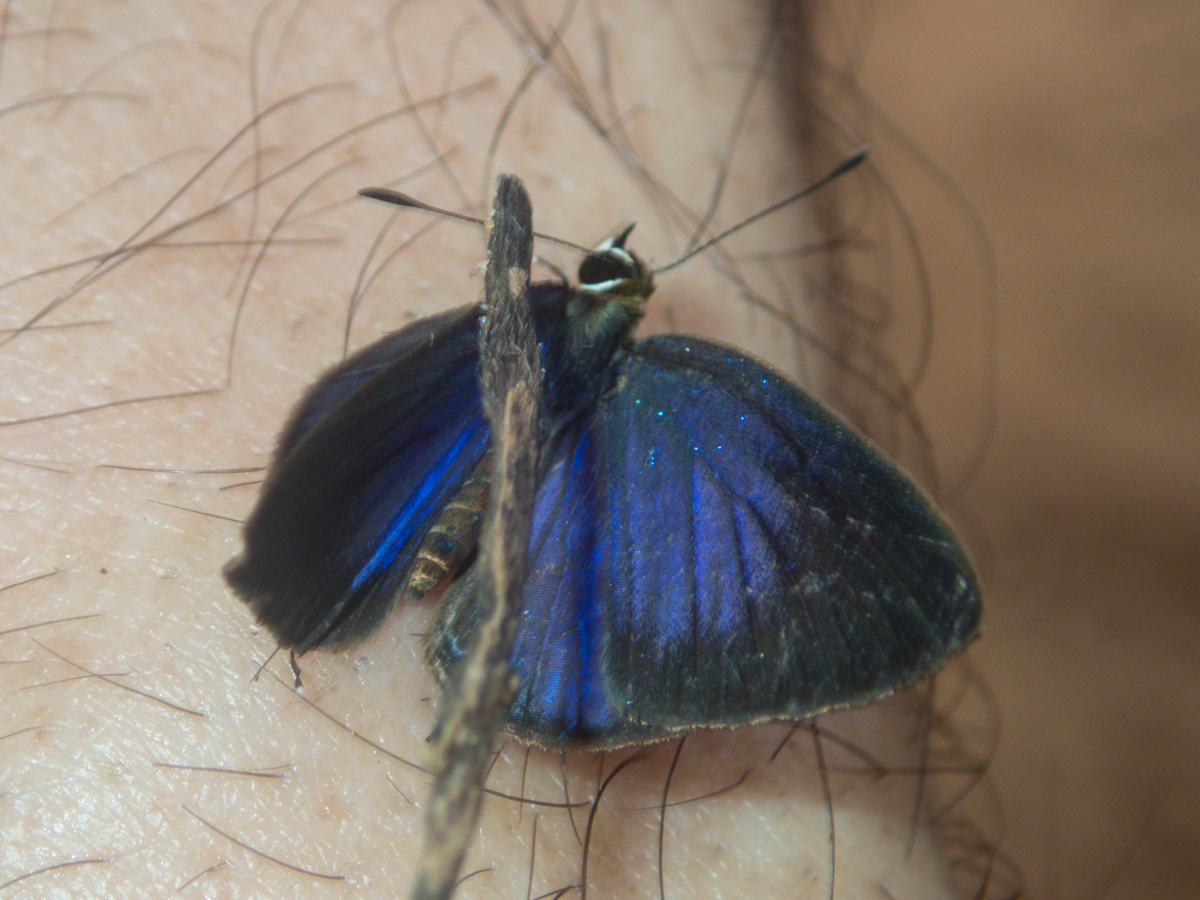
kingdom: Animalia
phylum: Arthropoda
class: Insecta
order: Lepidoptera
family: Lycaenidae
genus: Jamides
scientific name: Jamides bochus
